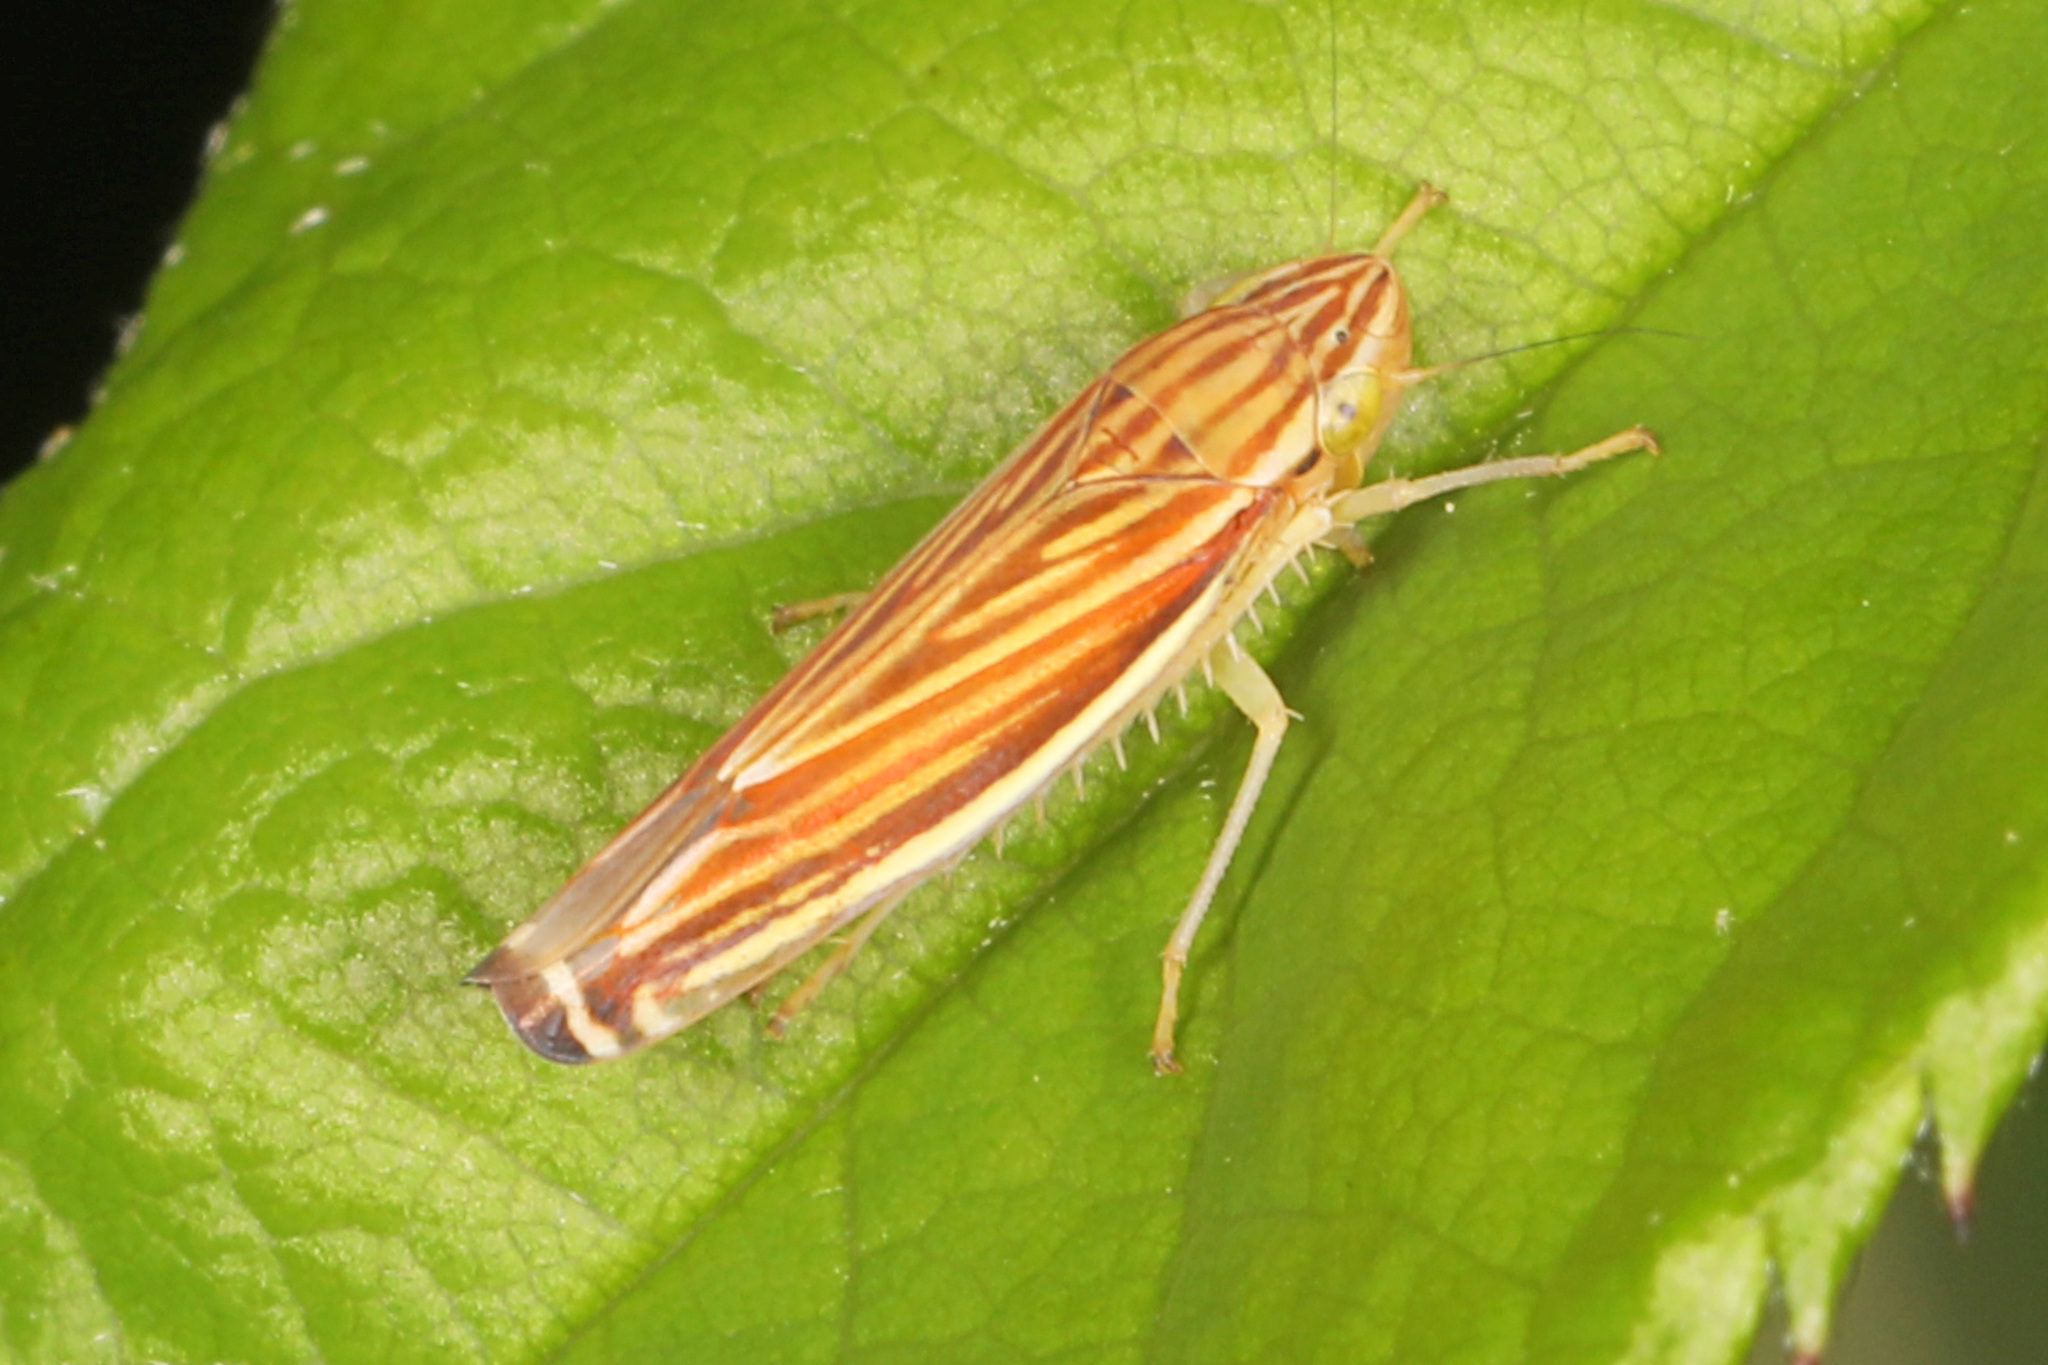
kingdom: Animalia
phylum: Arthropoda
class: Insecta
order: Hemiptera
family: Cicadellidae
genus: Sibovia
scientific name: Sibovia occatoria
